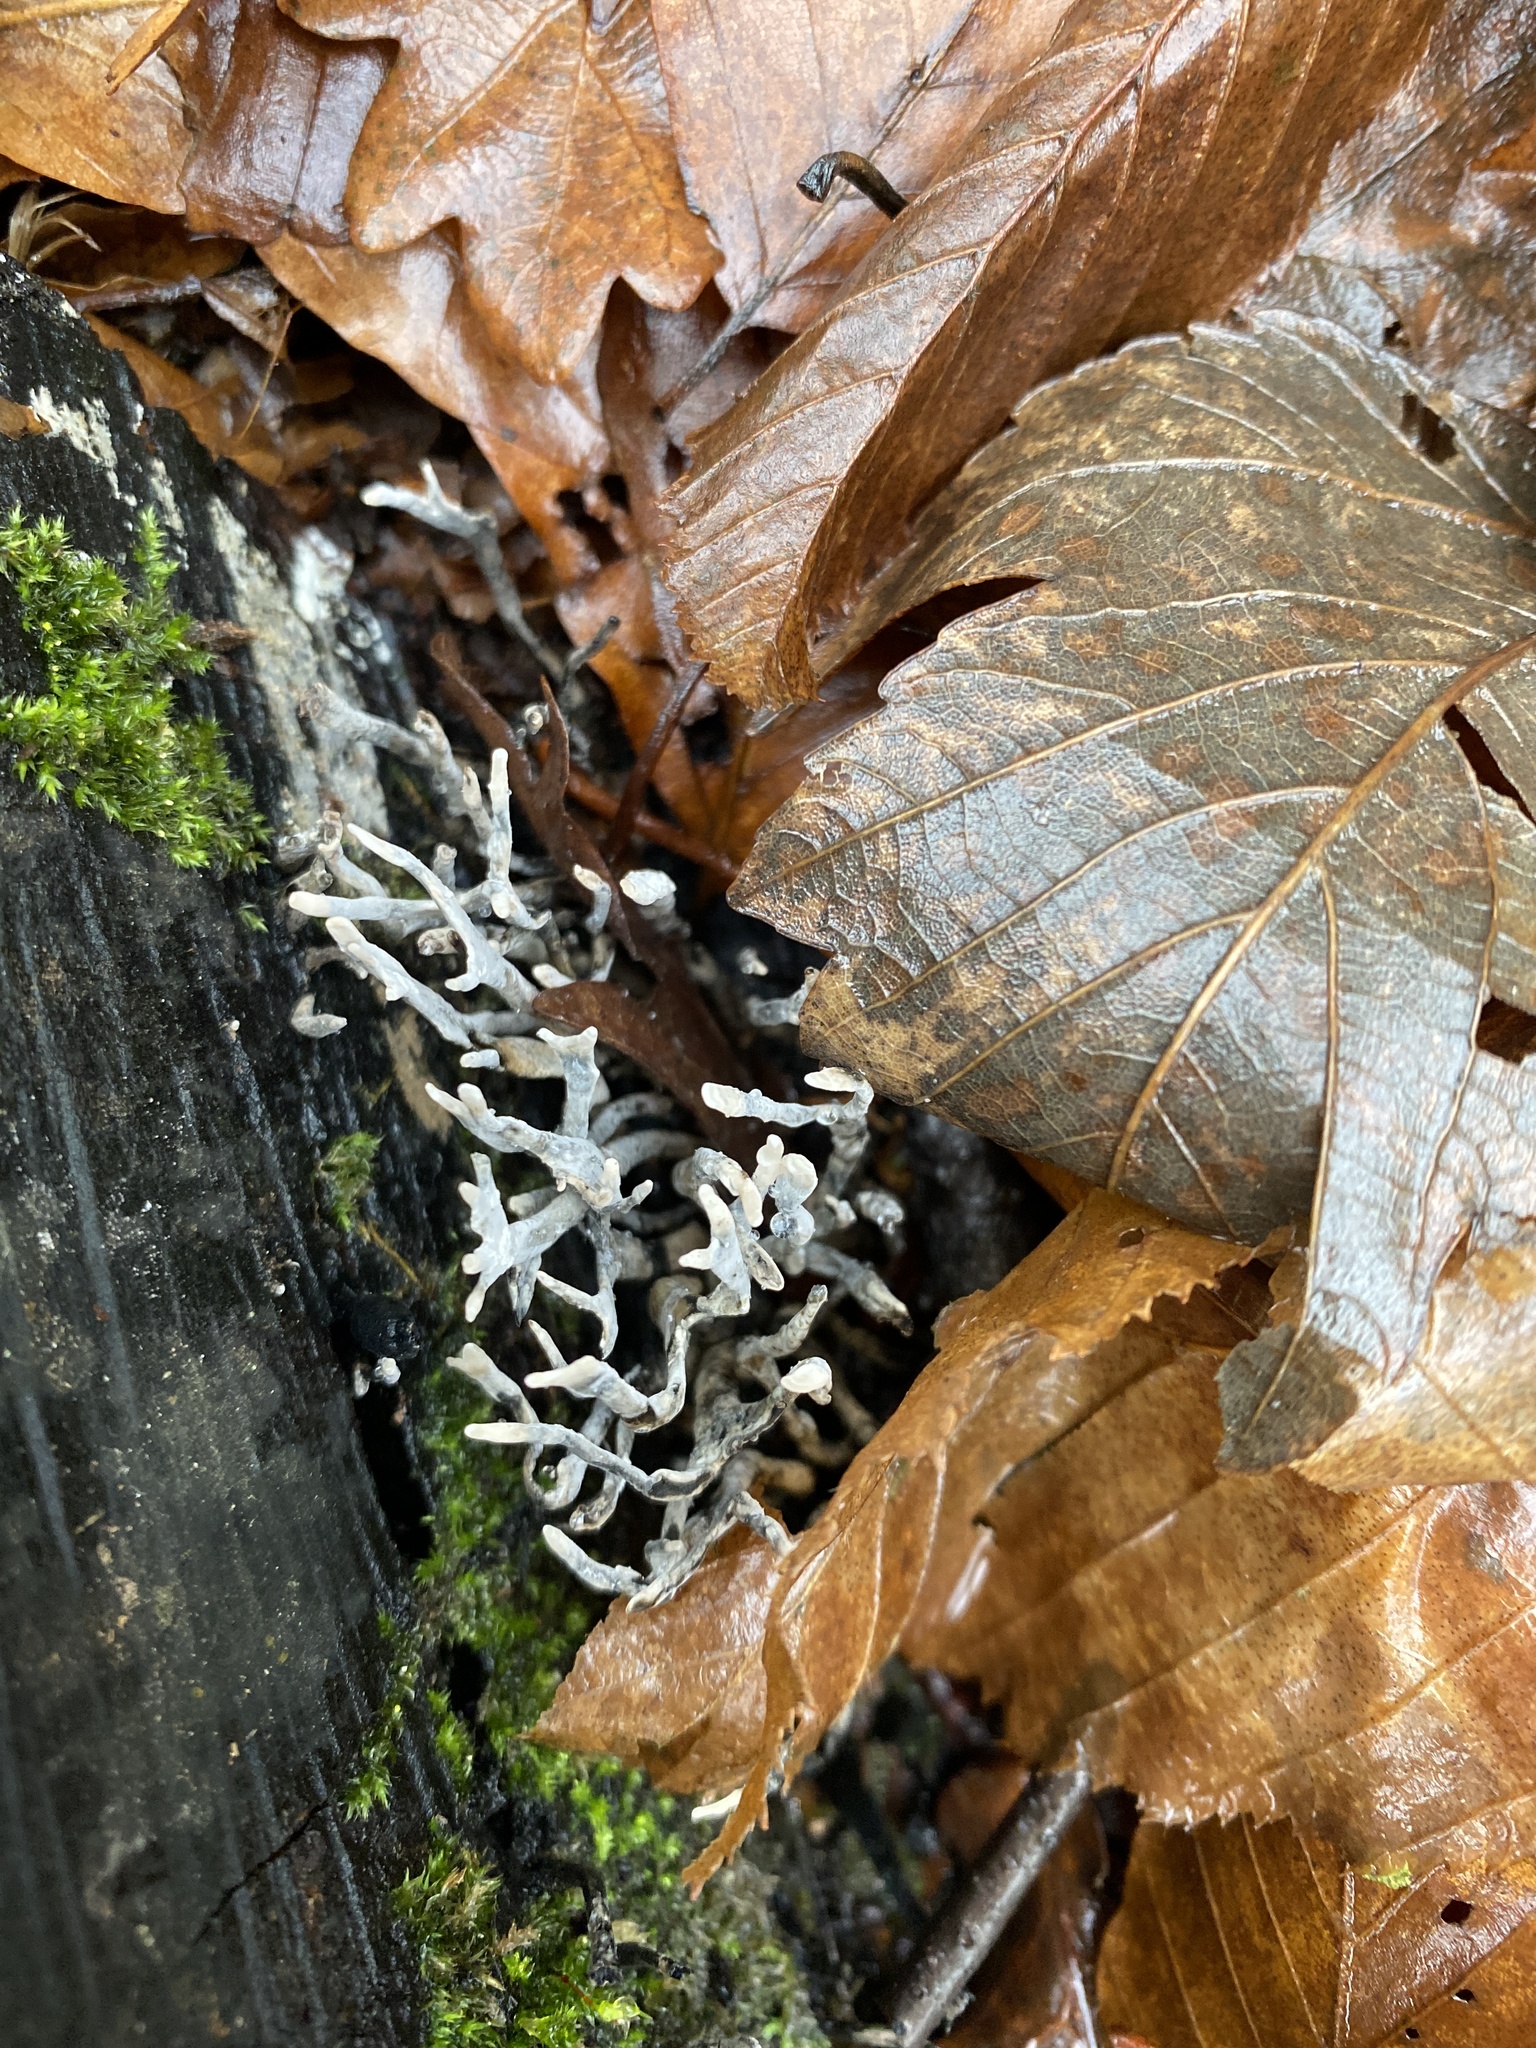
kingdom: Fungi
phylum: Ascomycota
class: Sordariomycetes
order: Xylariales
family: Xylariaceae
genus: Xylaria
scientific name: Xylaria hypoxylon
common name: Candle-snuff fungus
